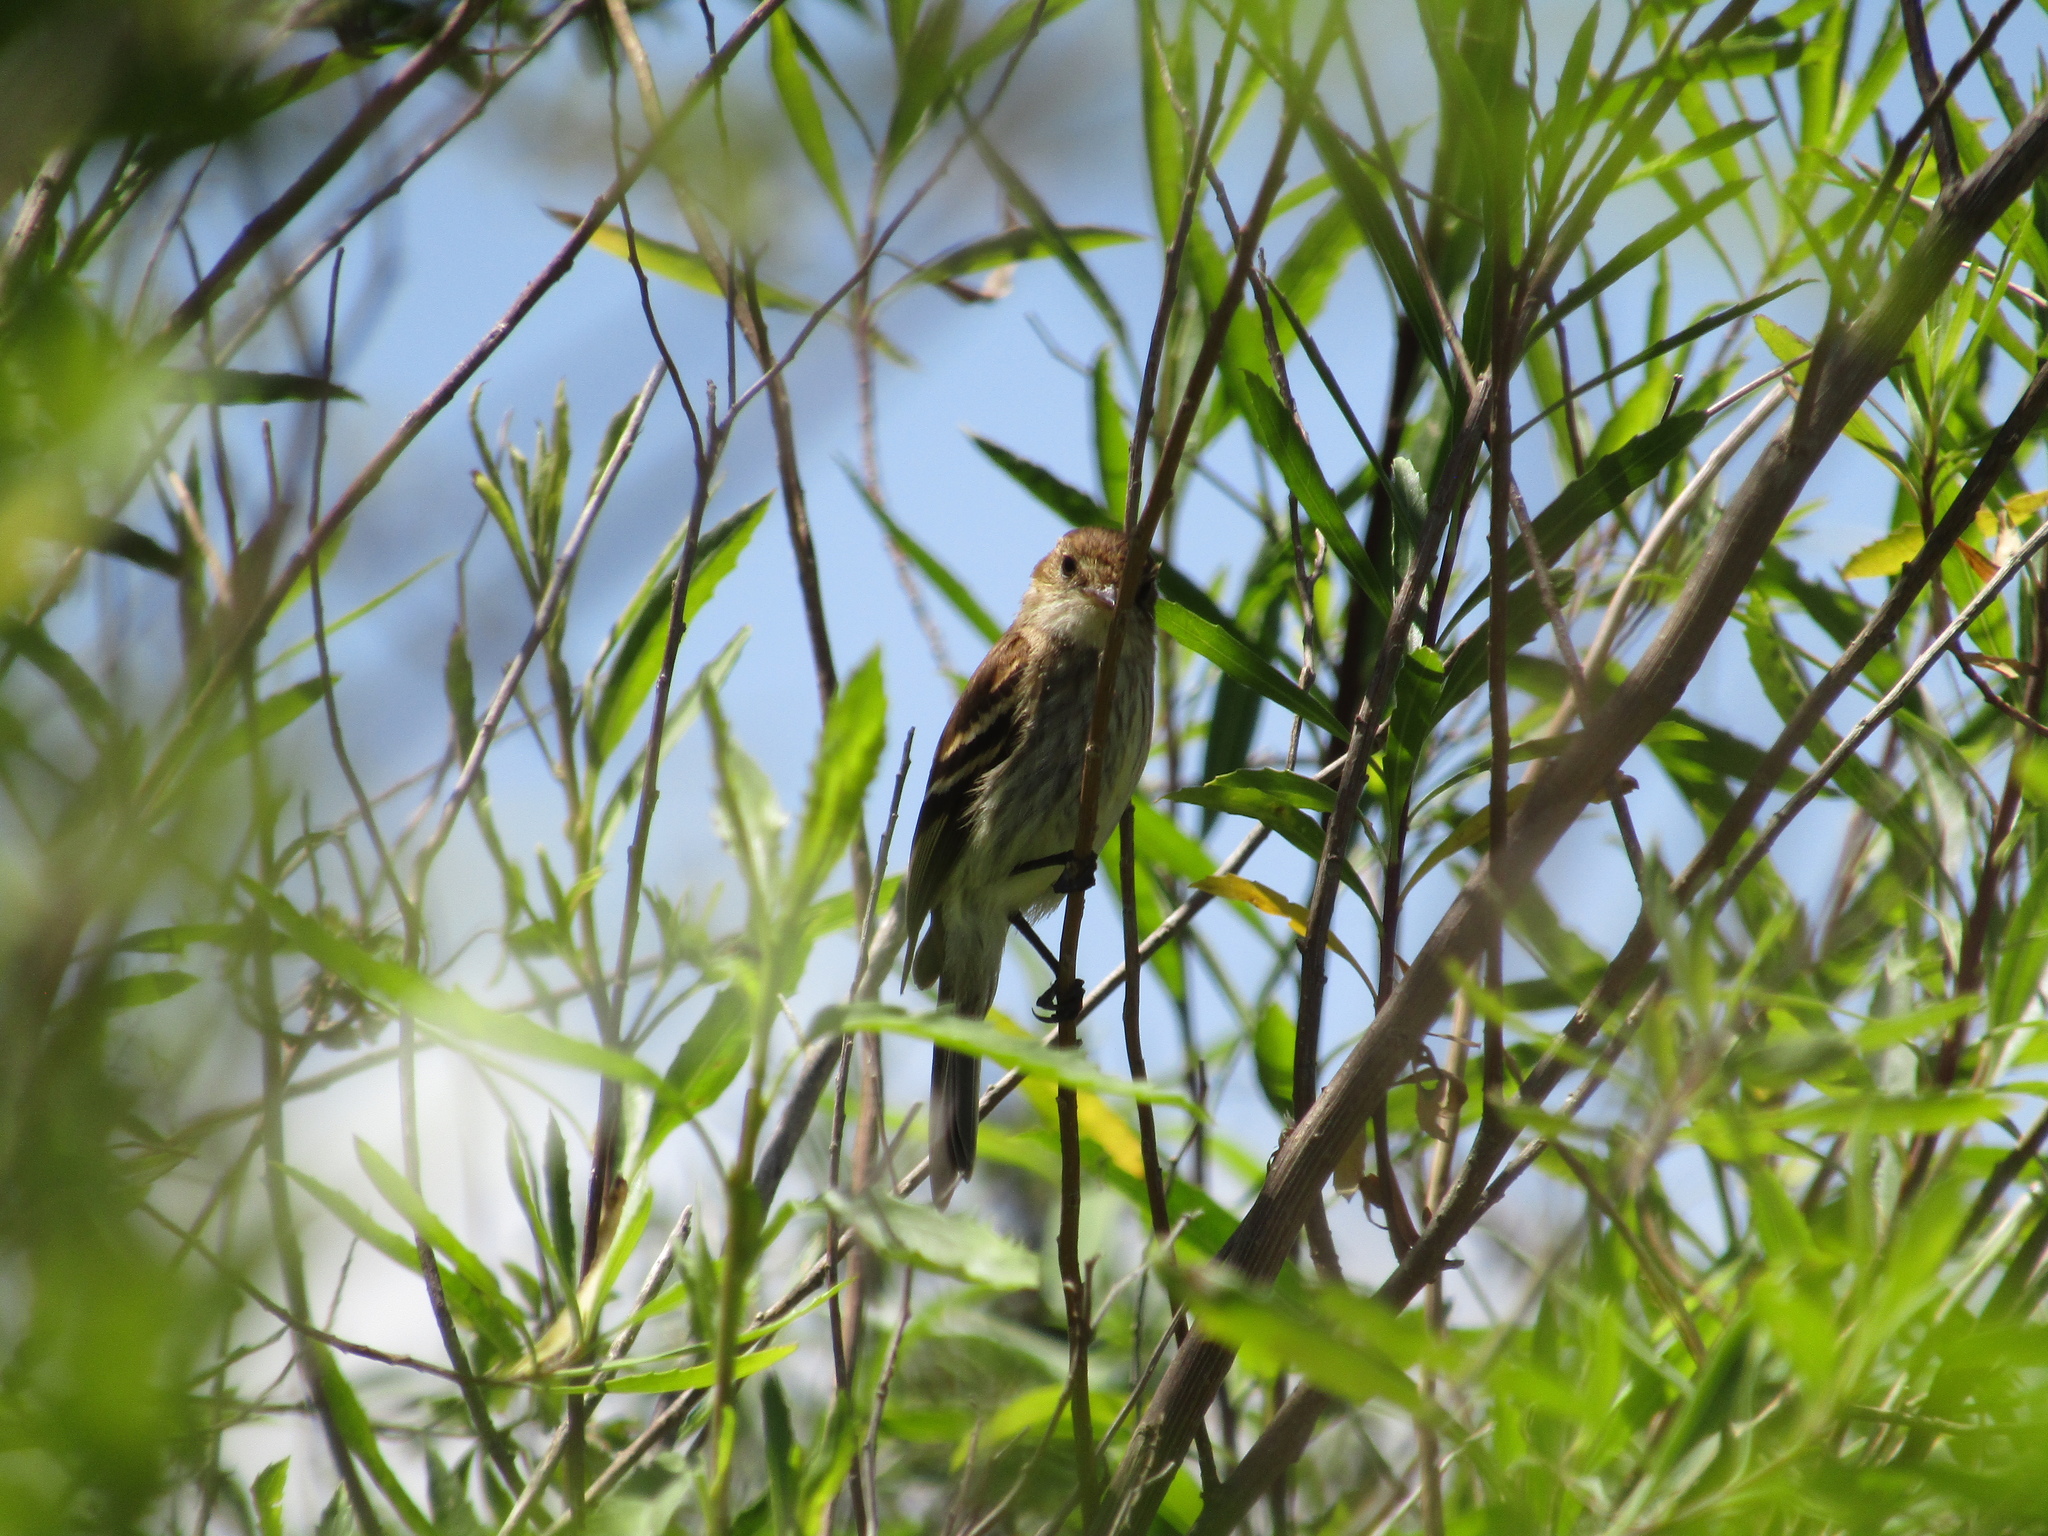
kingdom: Animalia
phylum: Chordata
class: Aves
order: Passeriformes
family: Tyrannidae
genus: Myiophobus
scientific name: Myiophobus fasciatus
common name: Bran-colored flycatcher
